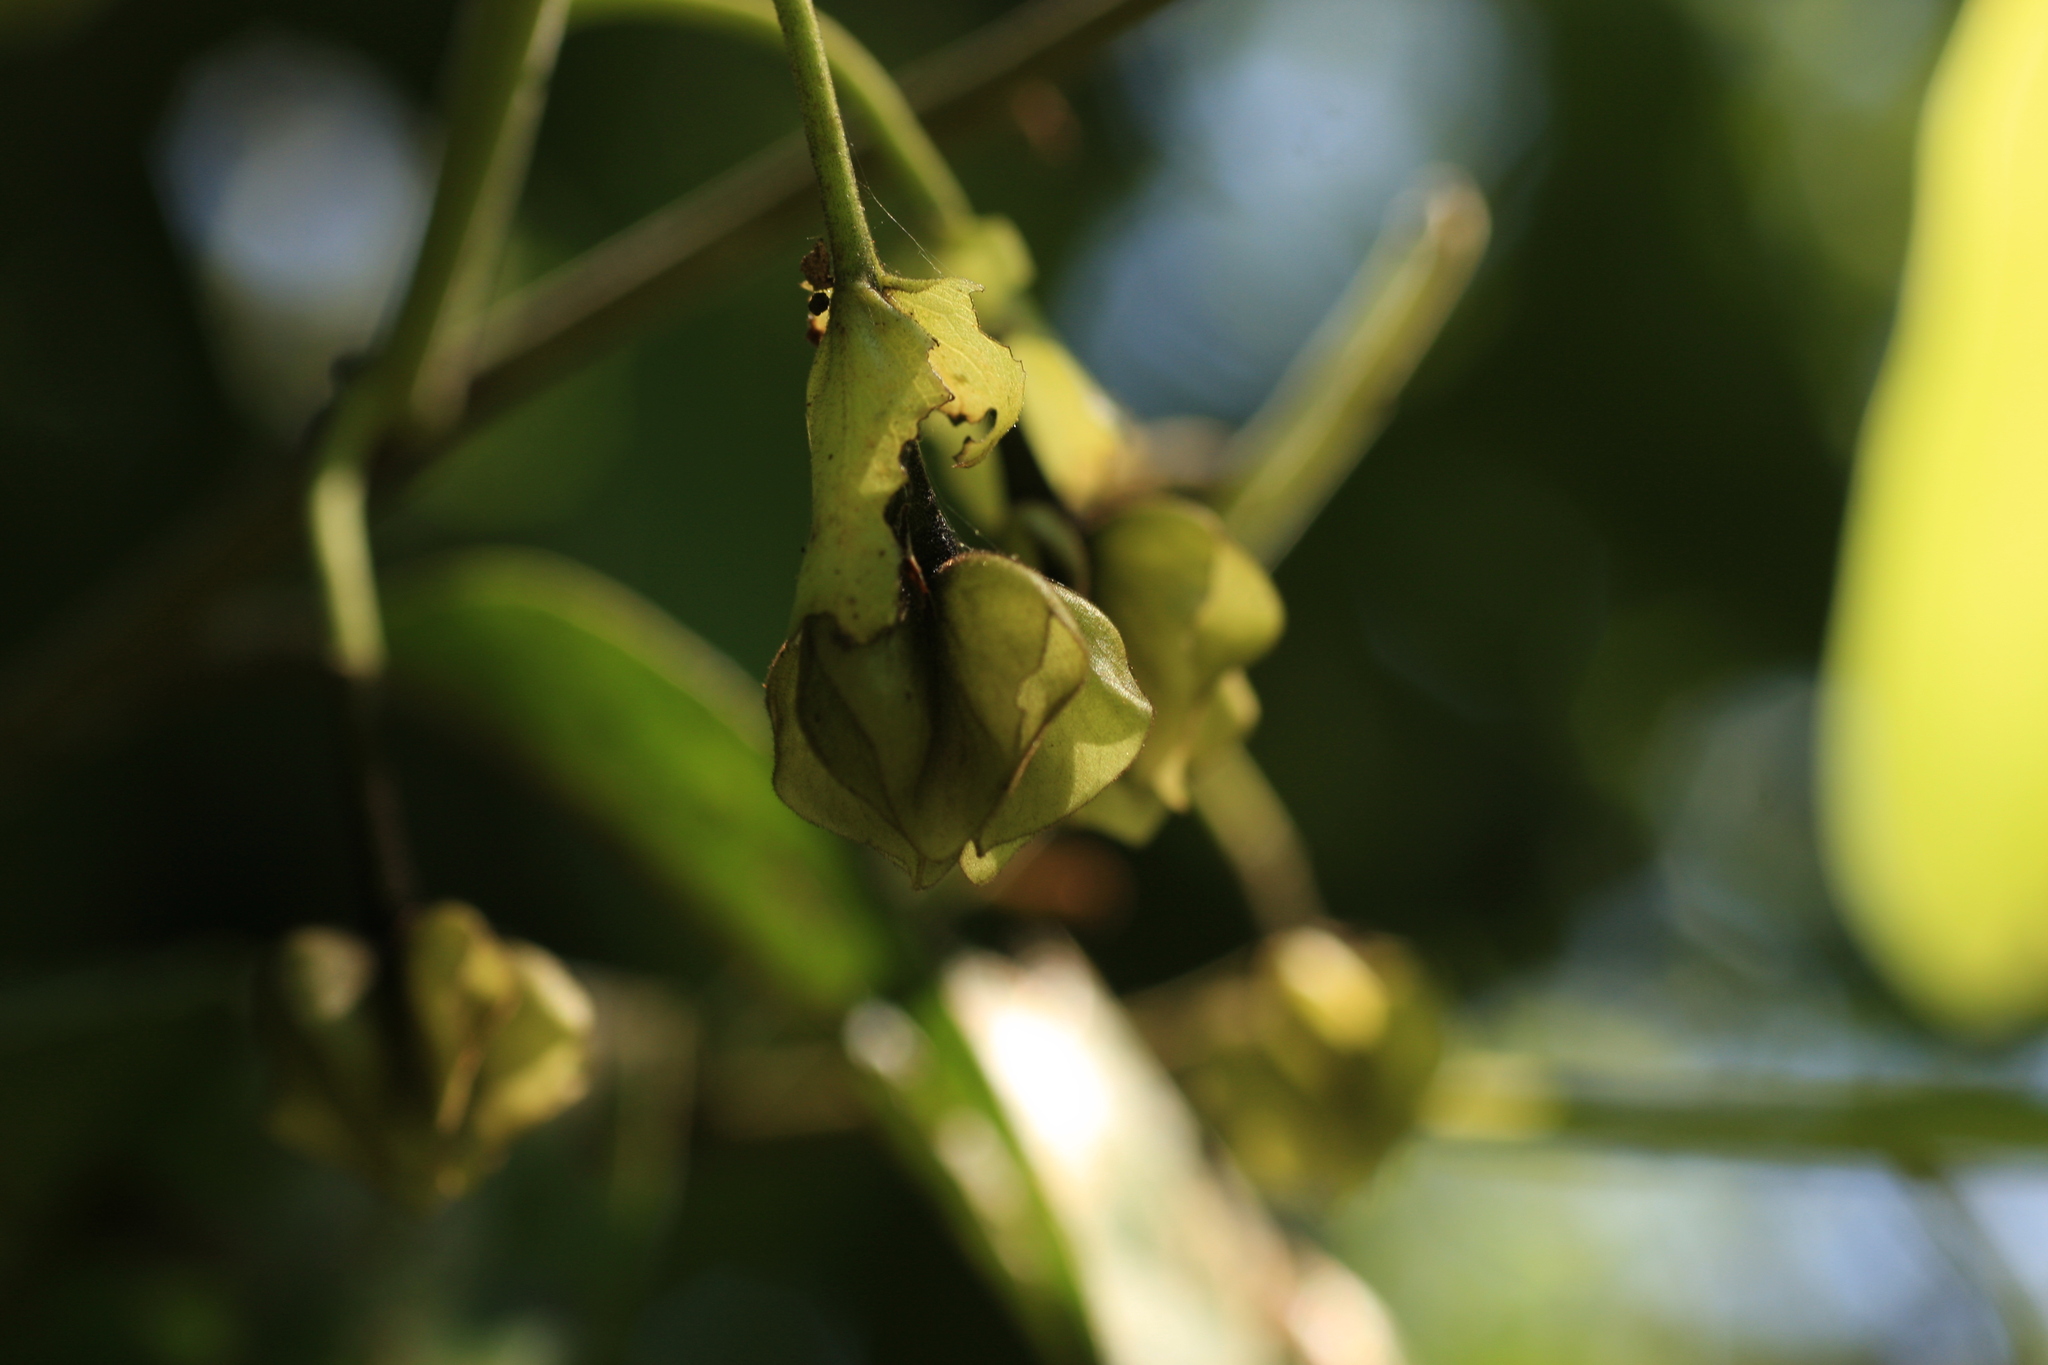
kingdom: Plantae
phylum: Tracheophyta
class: Magnoliopsida
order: Ericales
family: Ebenaceae
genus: Diospyros
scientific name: Diospyros paniculata
